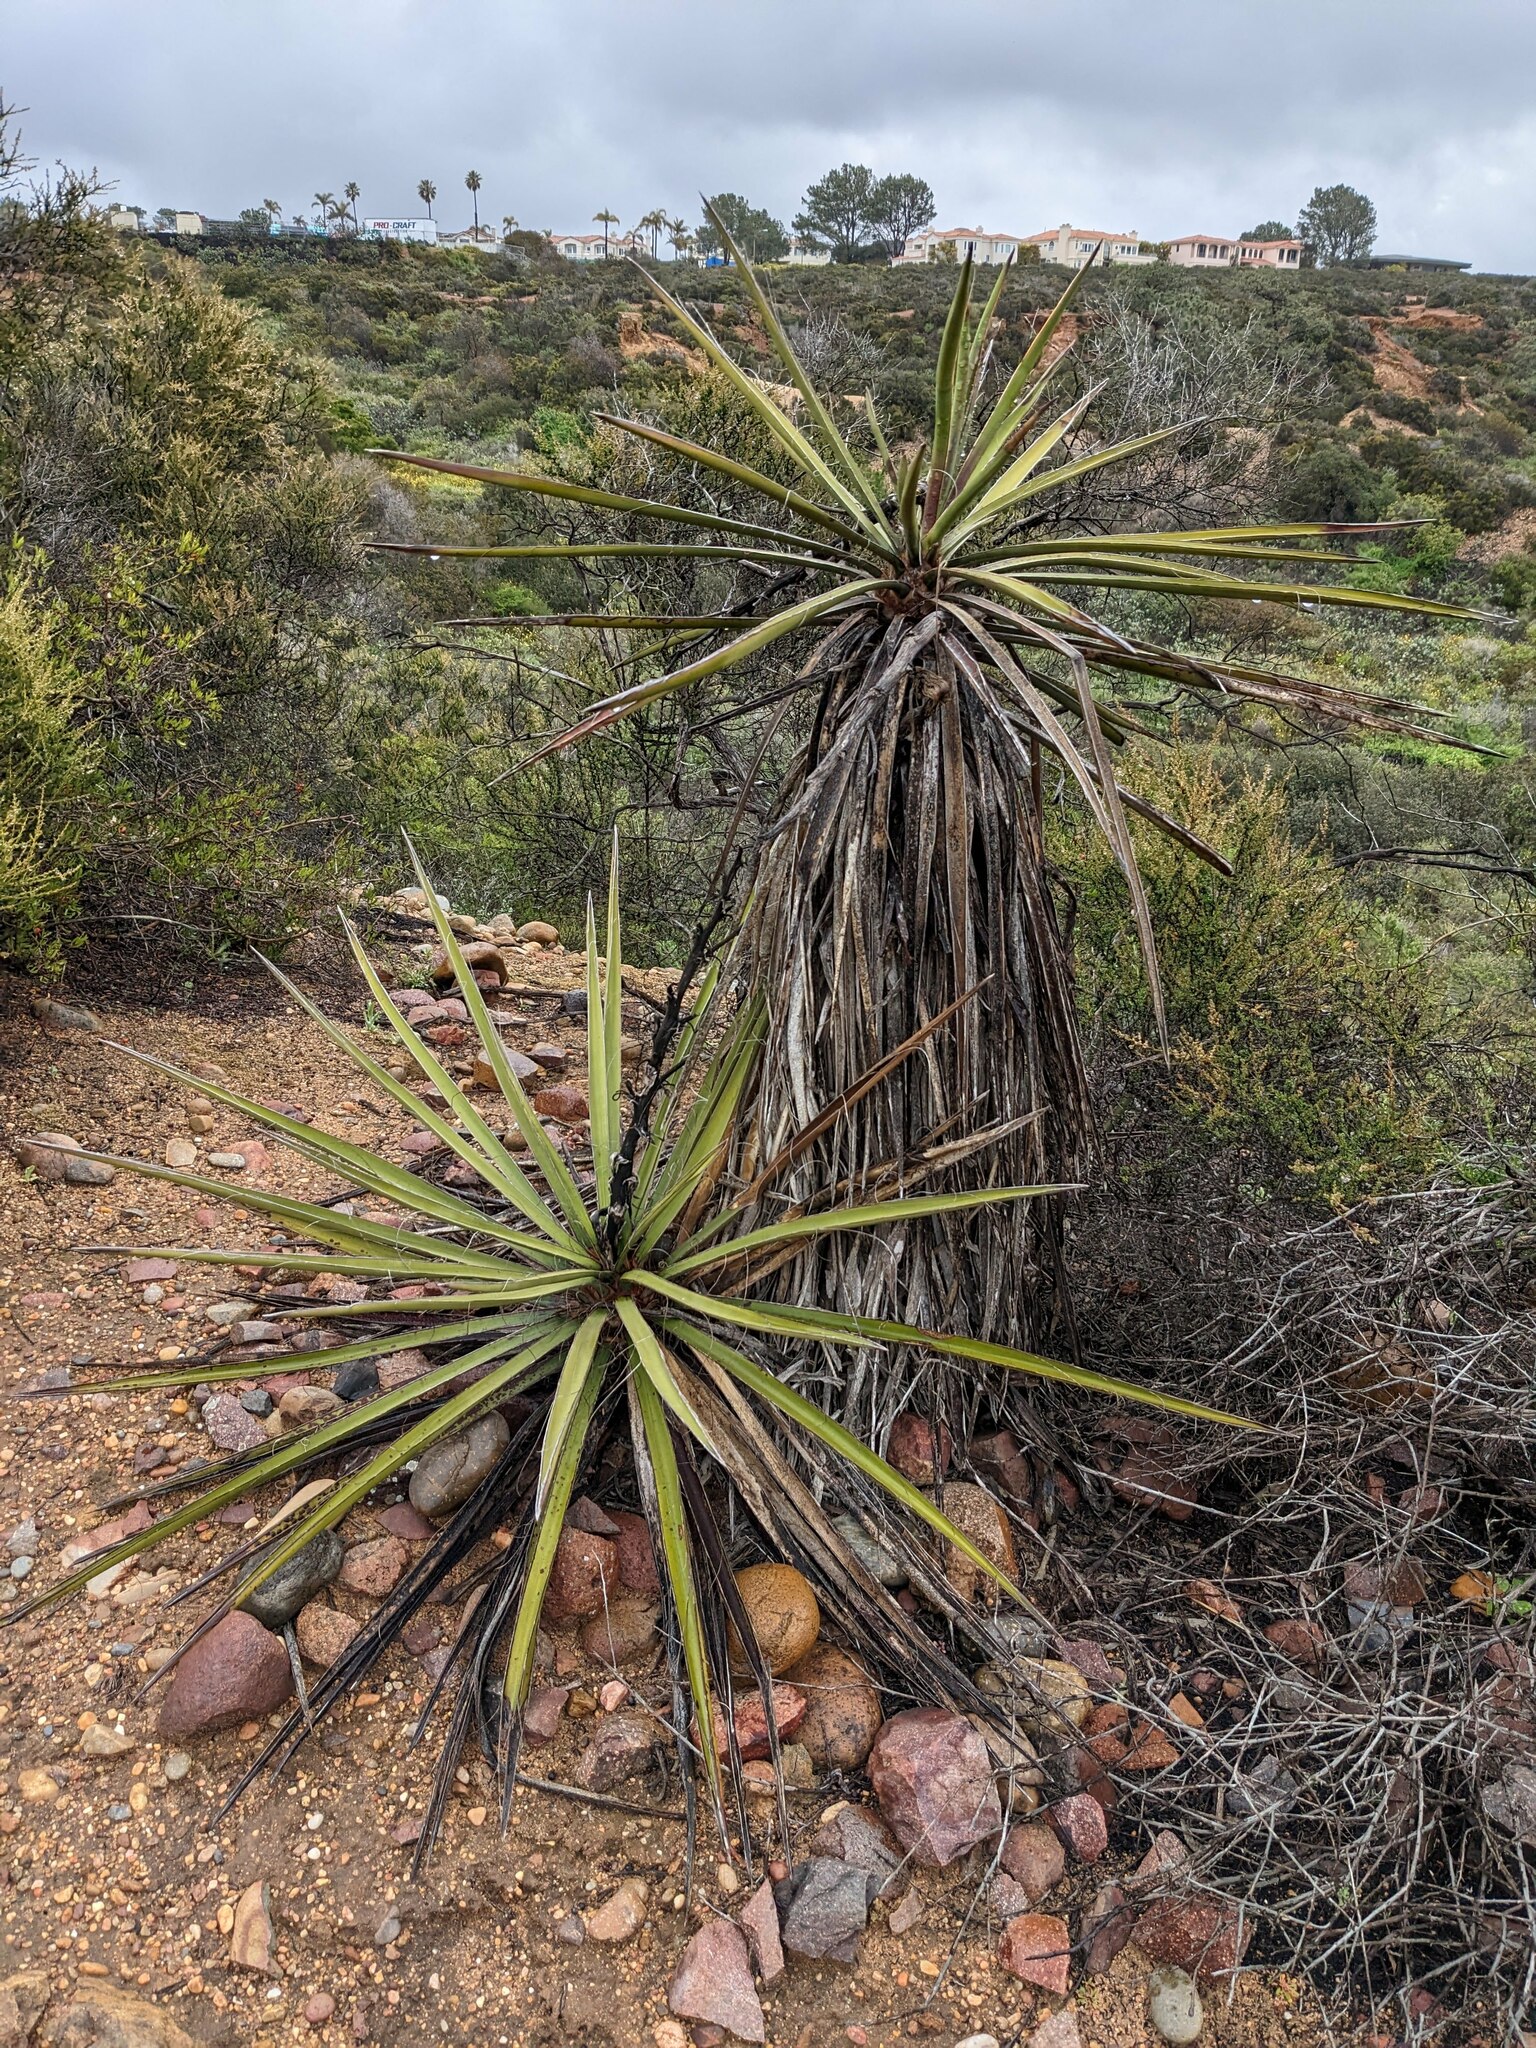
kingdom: Plantae
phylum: Tracheophyta
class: Liliopsida
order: Asparagales
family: Asparagaceae
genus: Yucca
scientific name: Yucca schidigera
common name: Mojave yucca
